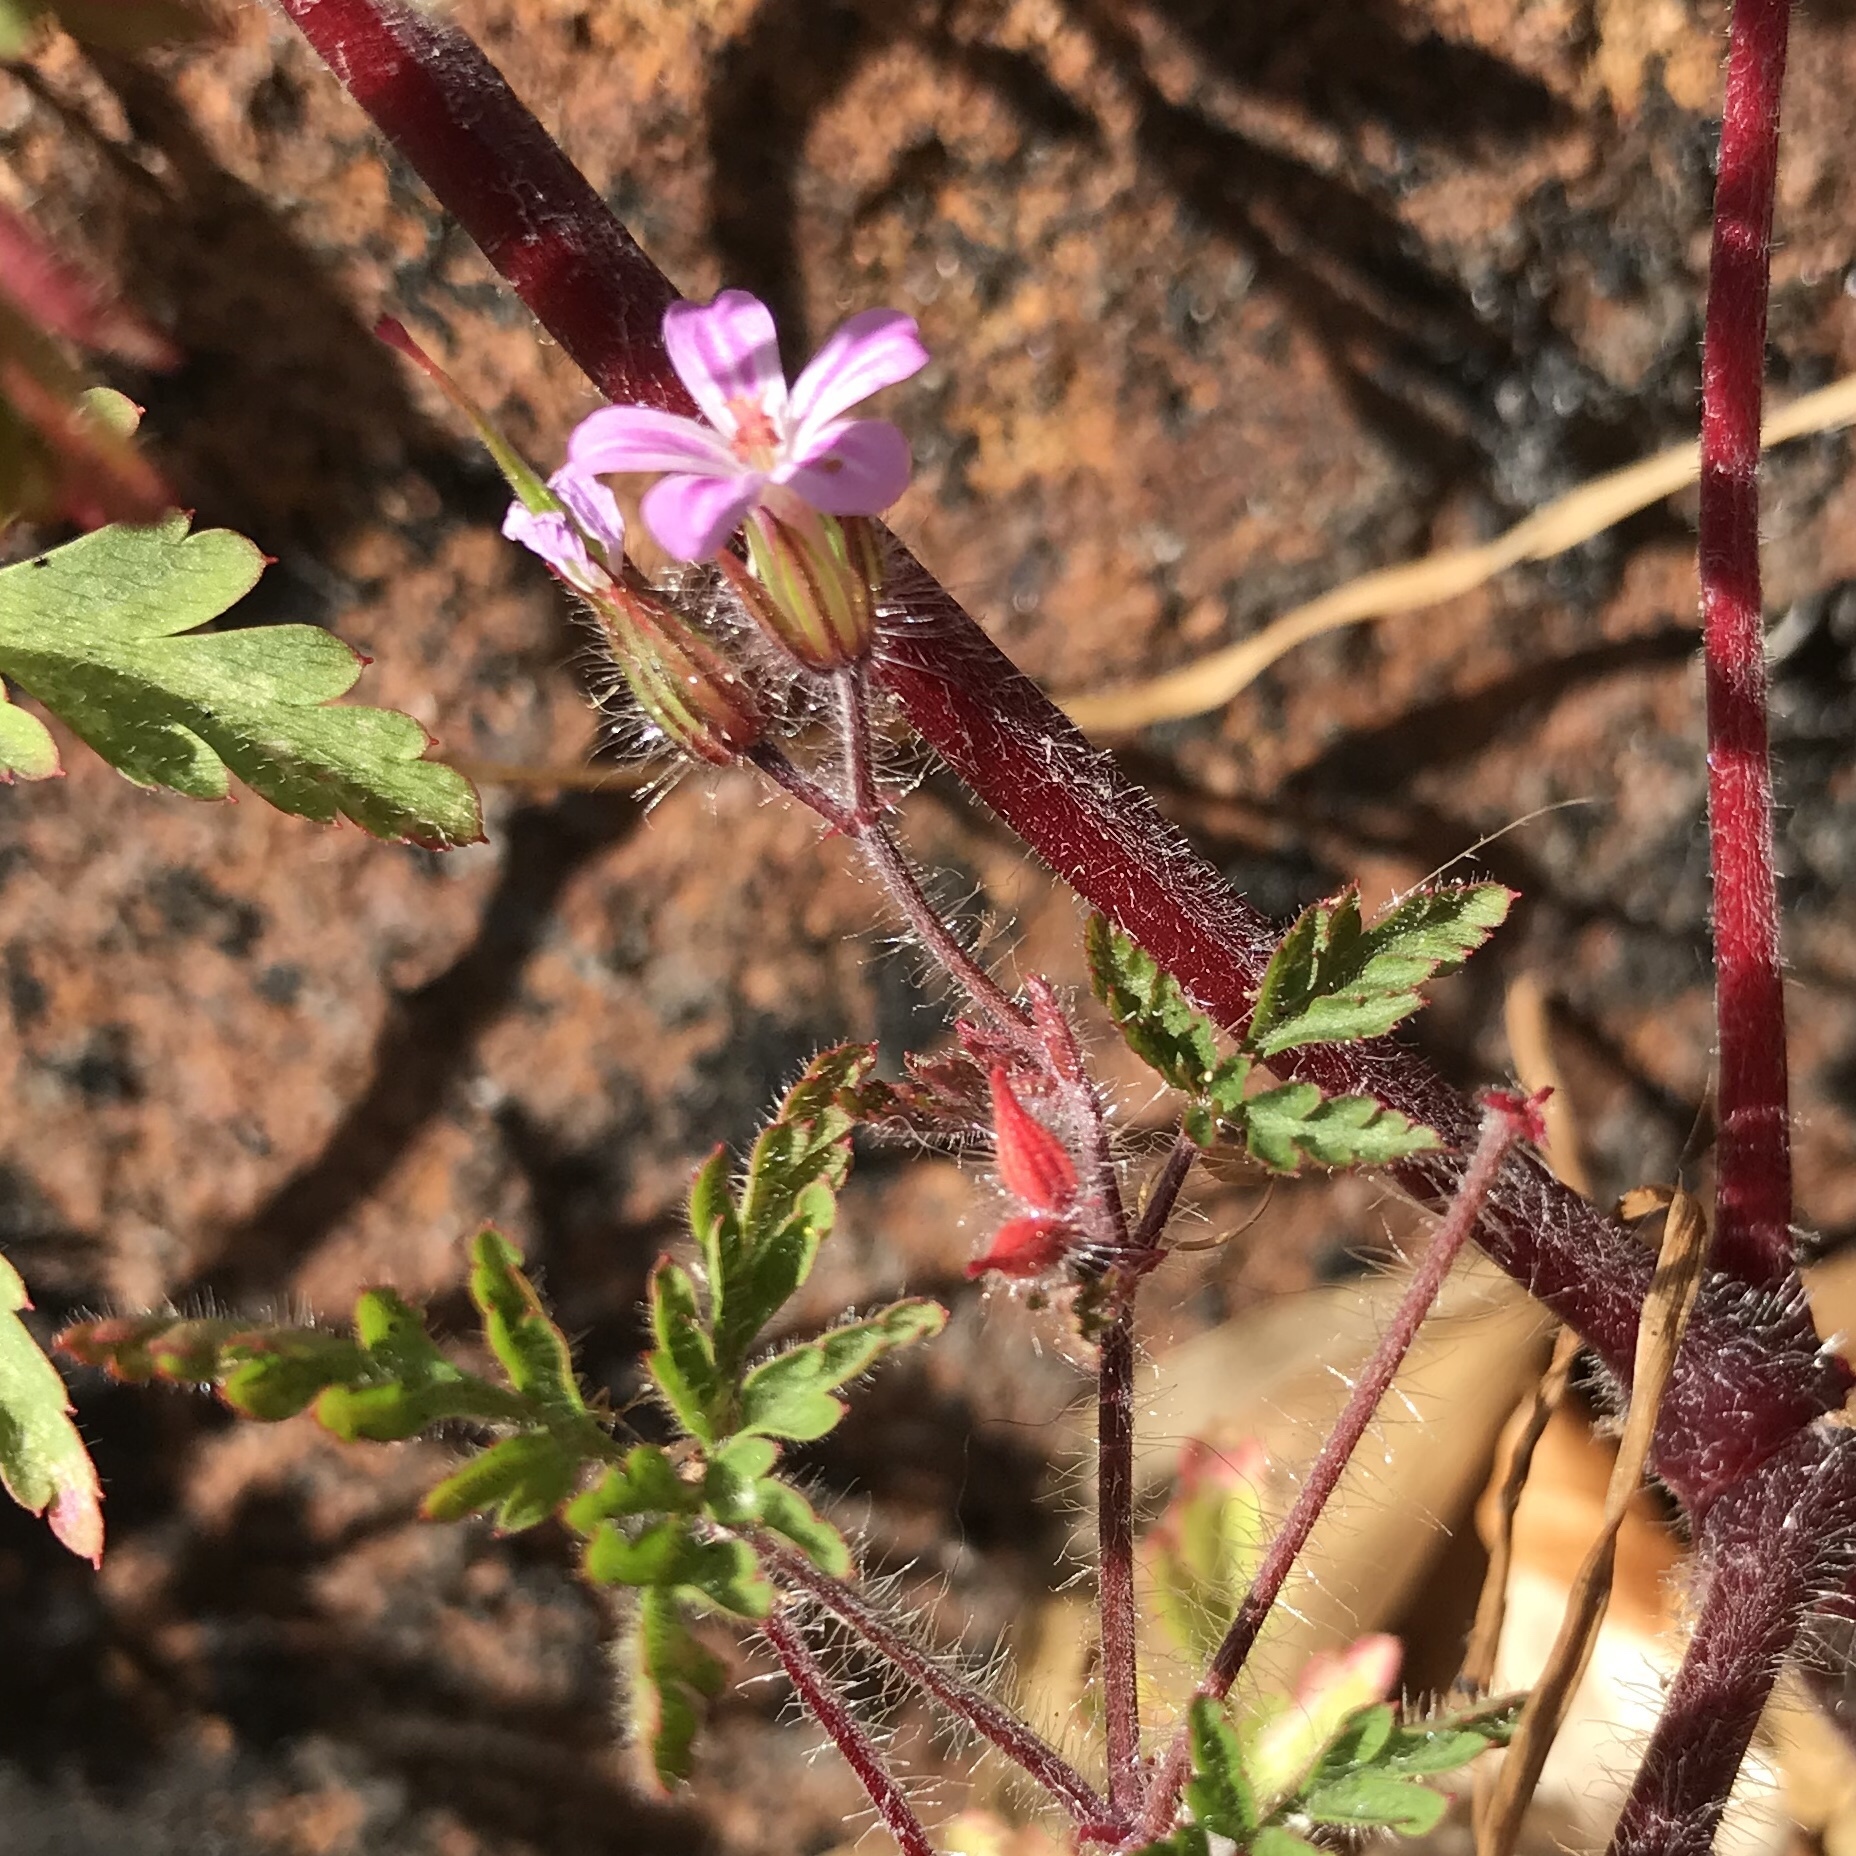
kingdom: Plantae
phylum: Tracheophyta
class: Magnoliopsida
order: Geraniales
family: Geraniaceae
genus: Geranium
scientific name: Geranium robertianum
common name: Herb-robert
